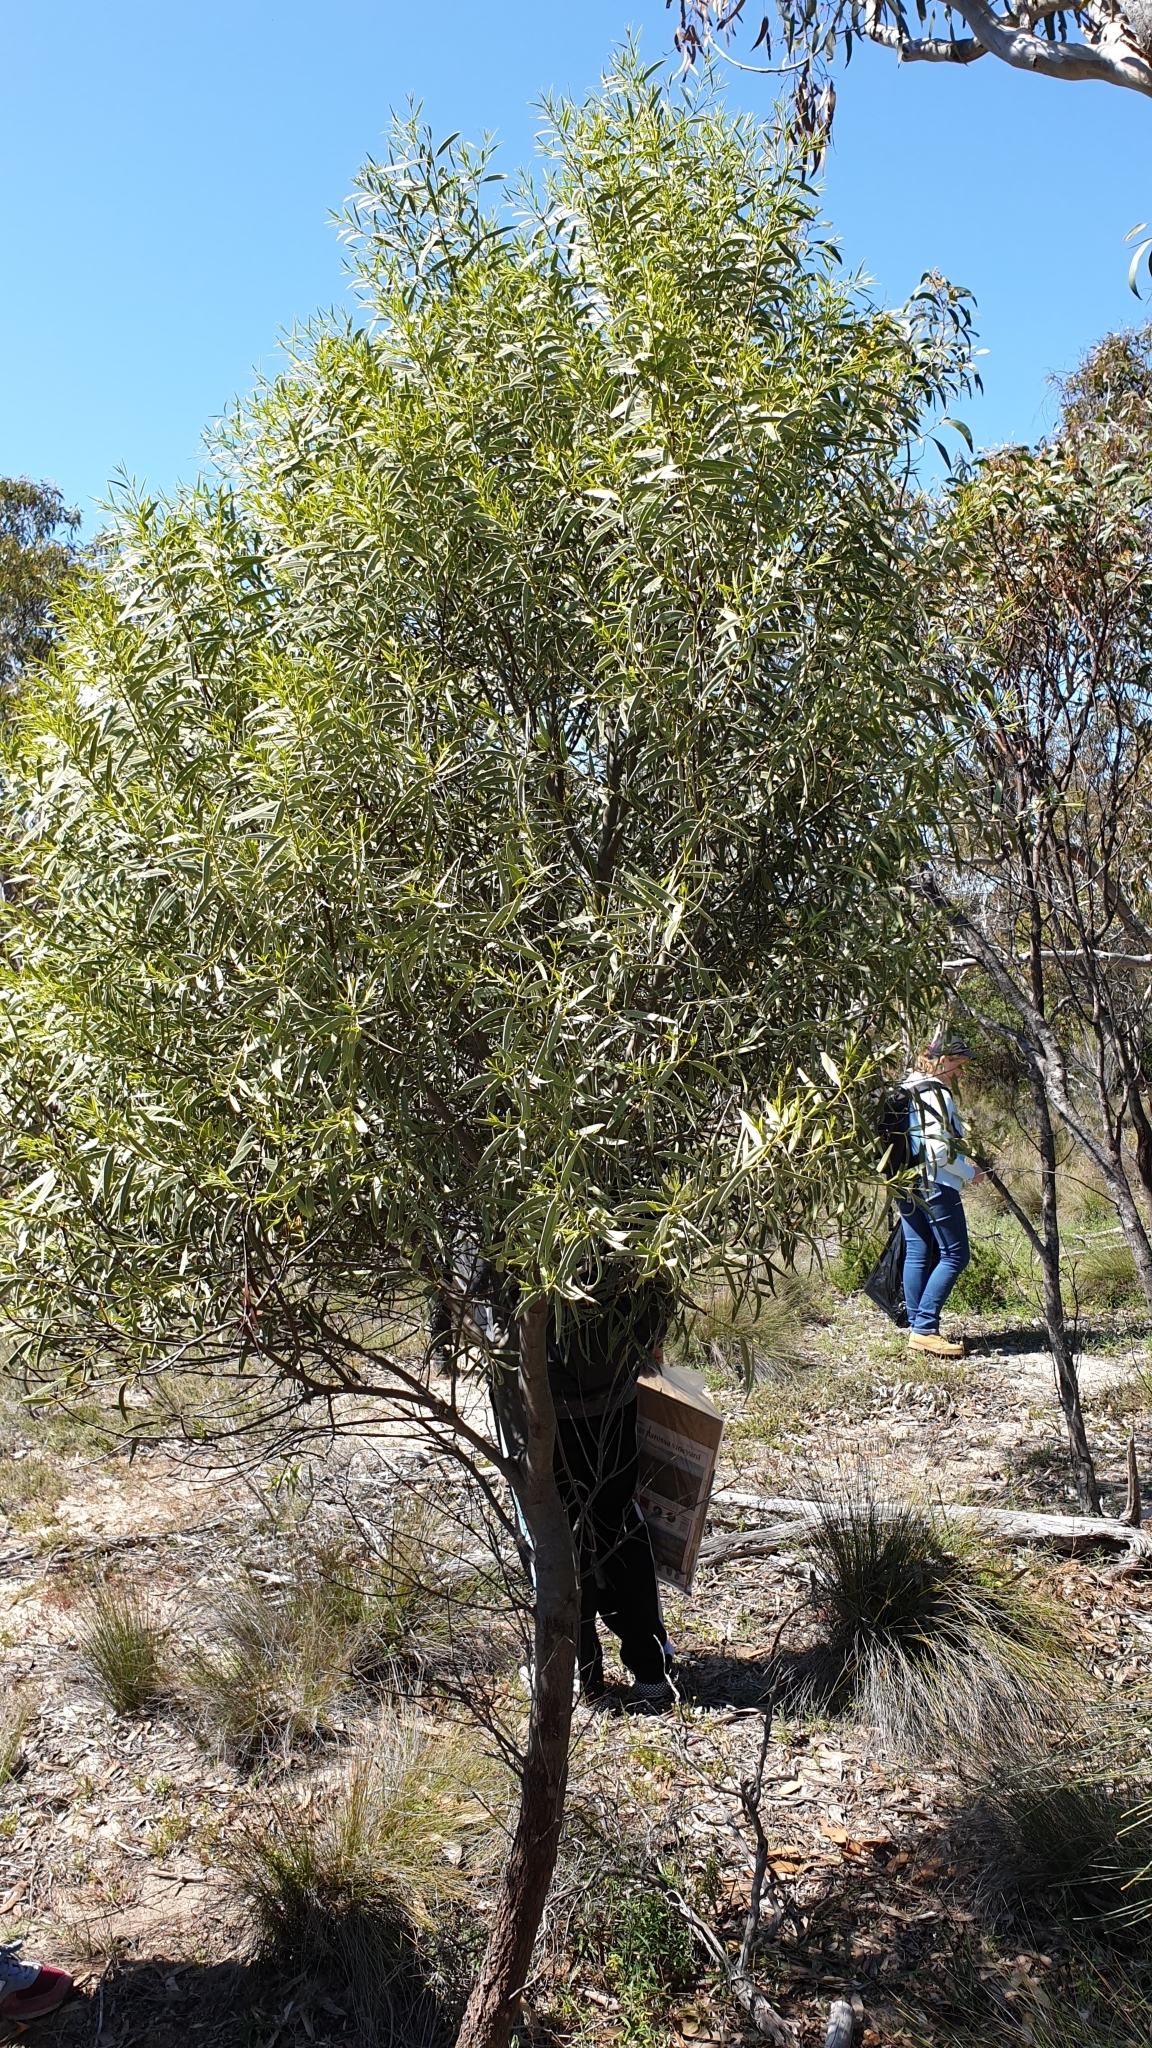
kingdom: Plantae
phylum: Tracheophyta
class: Magnoliopsida
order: Santalales
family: Santalaceae
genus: Santalum
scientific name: Santalum acuminatum
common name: Sweet quandong
